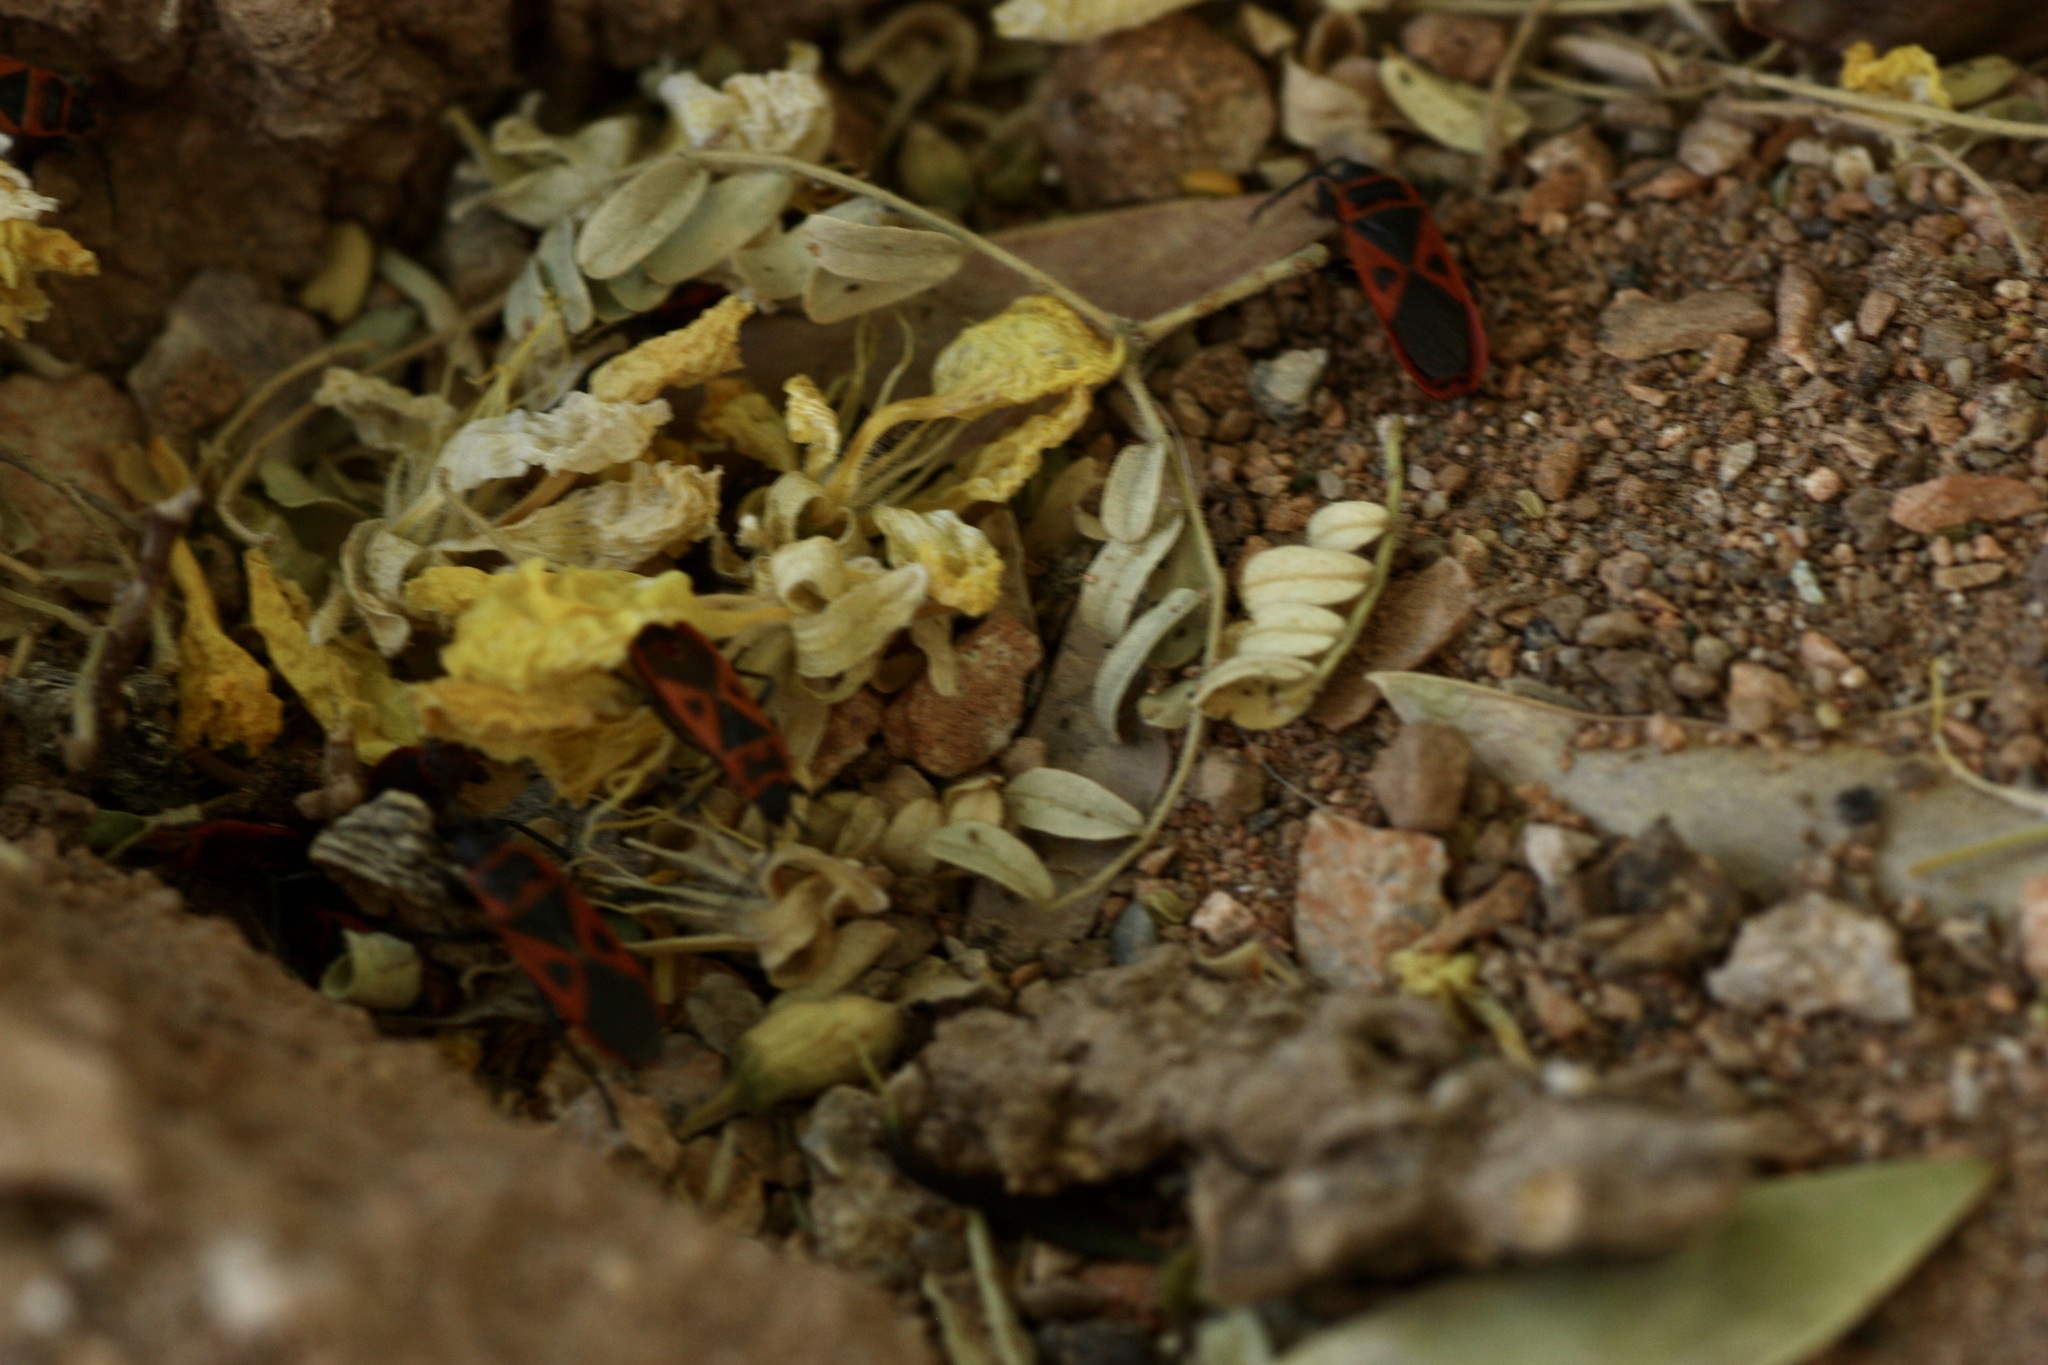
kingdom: Animalia
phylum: Arthropoda
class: Insecta
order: Hemiptera
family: Pyrrhocoridae
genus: Scantius
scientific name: Scantius aegyptius
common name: Red bug
